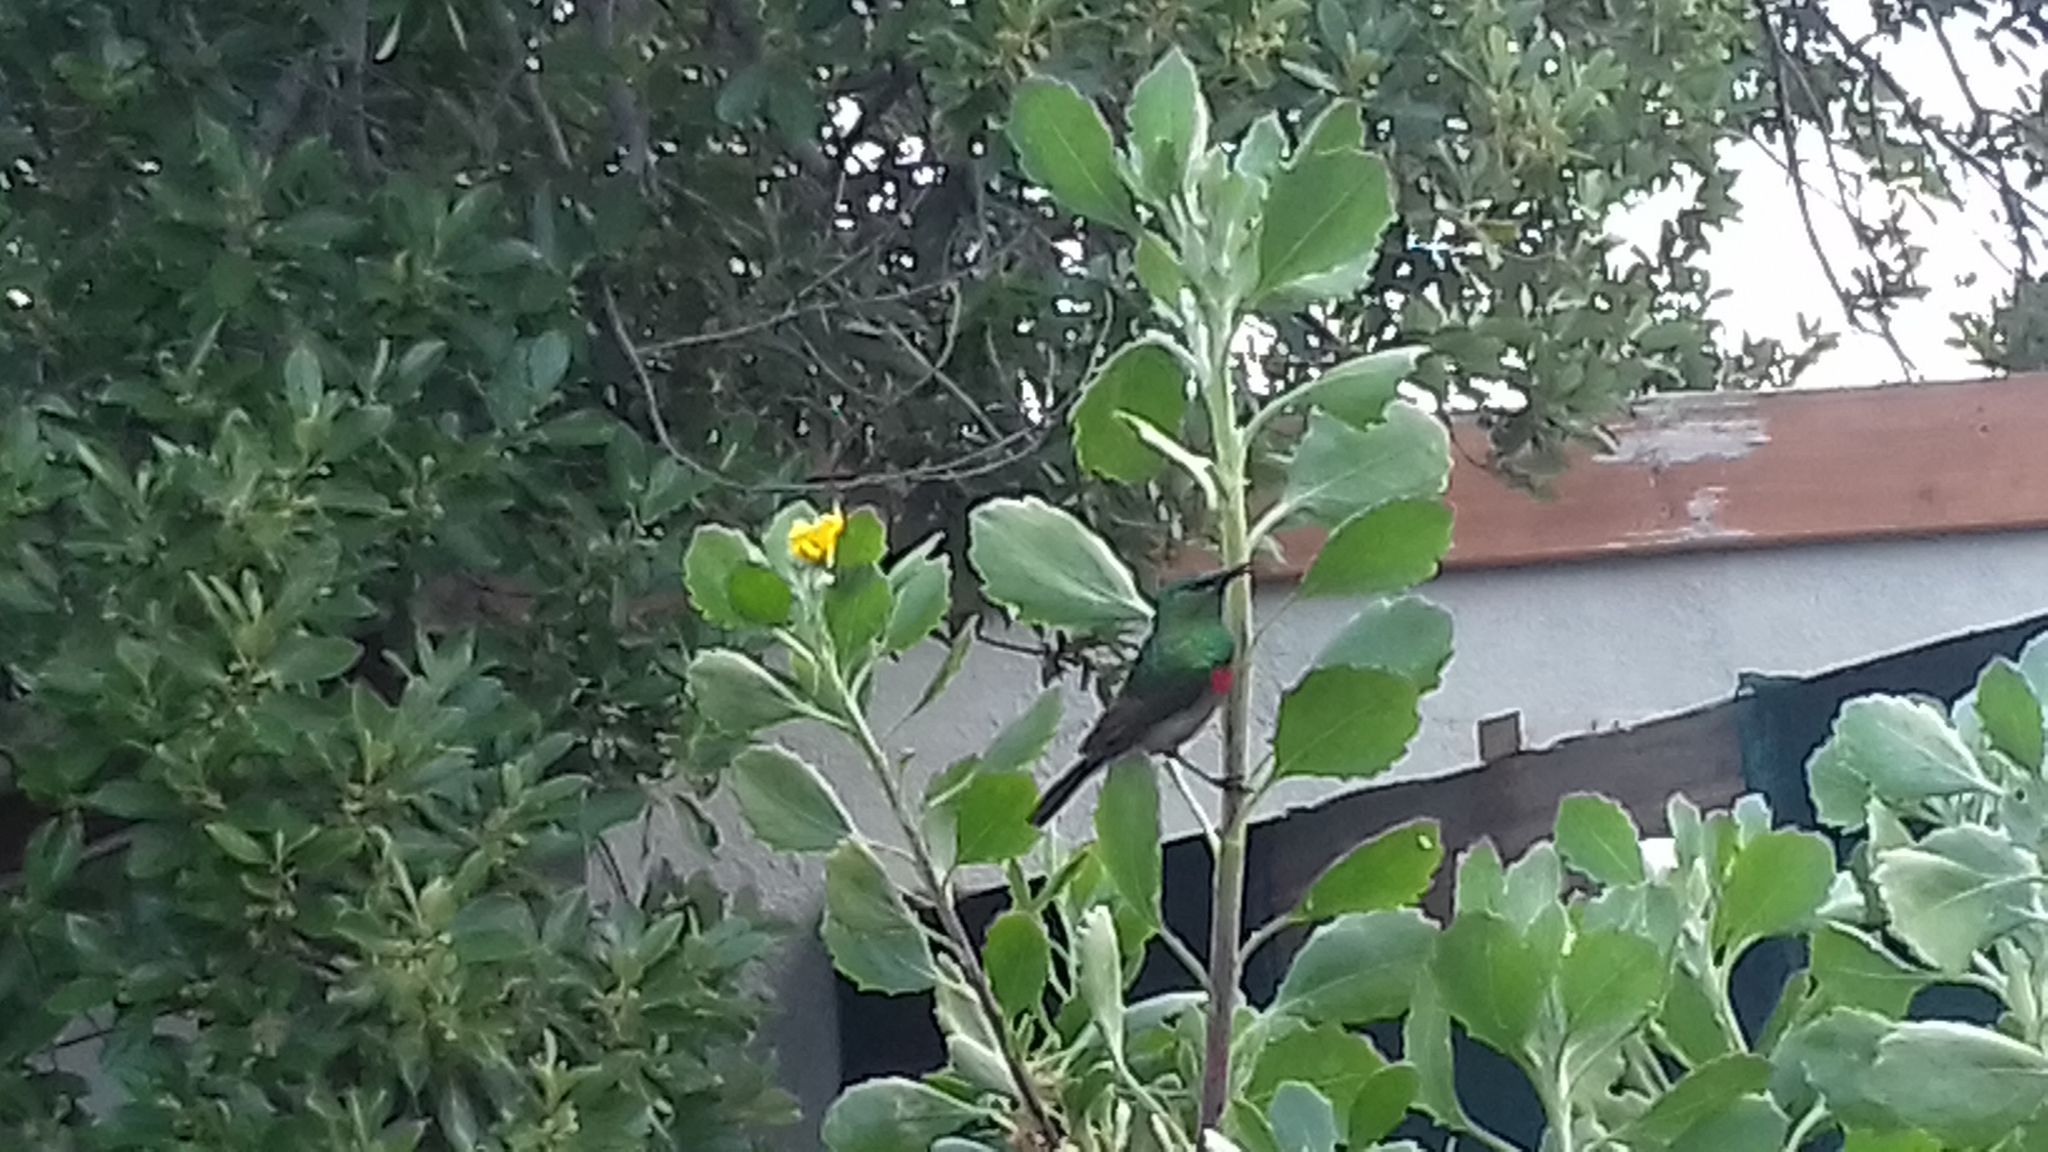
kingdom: Animalia
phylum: Chordata
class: Aves
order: Passeriformes
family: Nectariniidae
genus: Cinnyris
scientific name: Cinnyris chalybeus
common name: Southern double-collared sunbird
